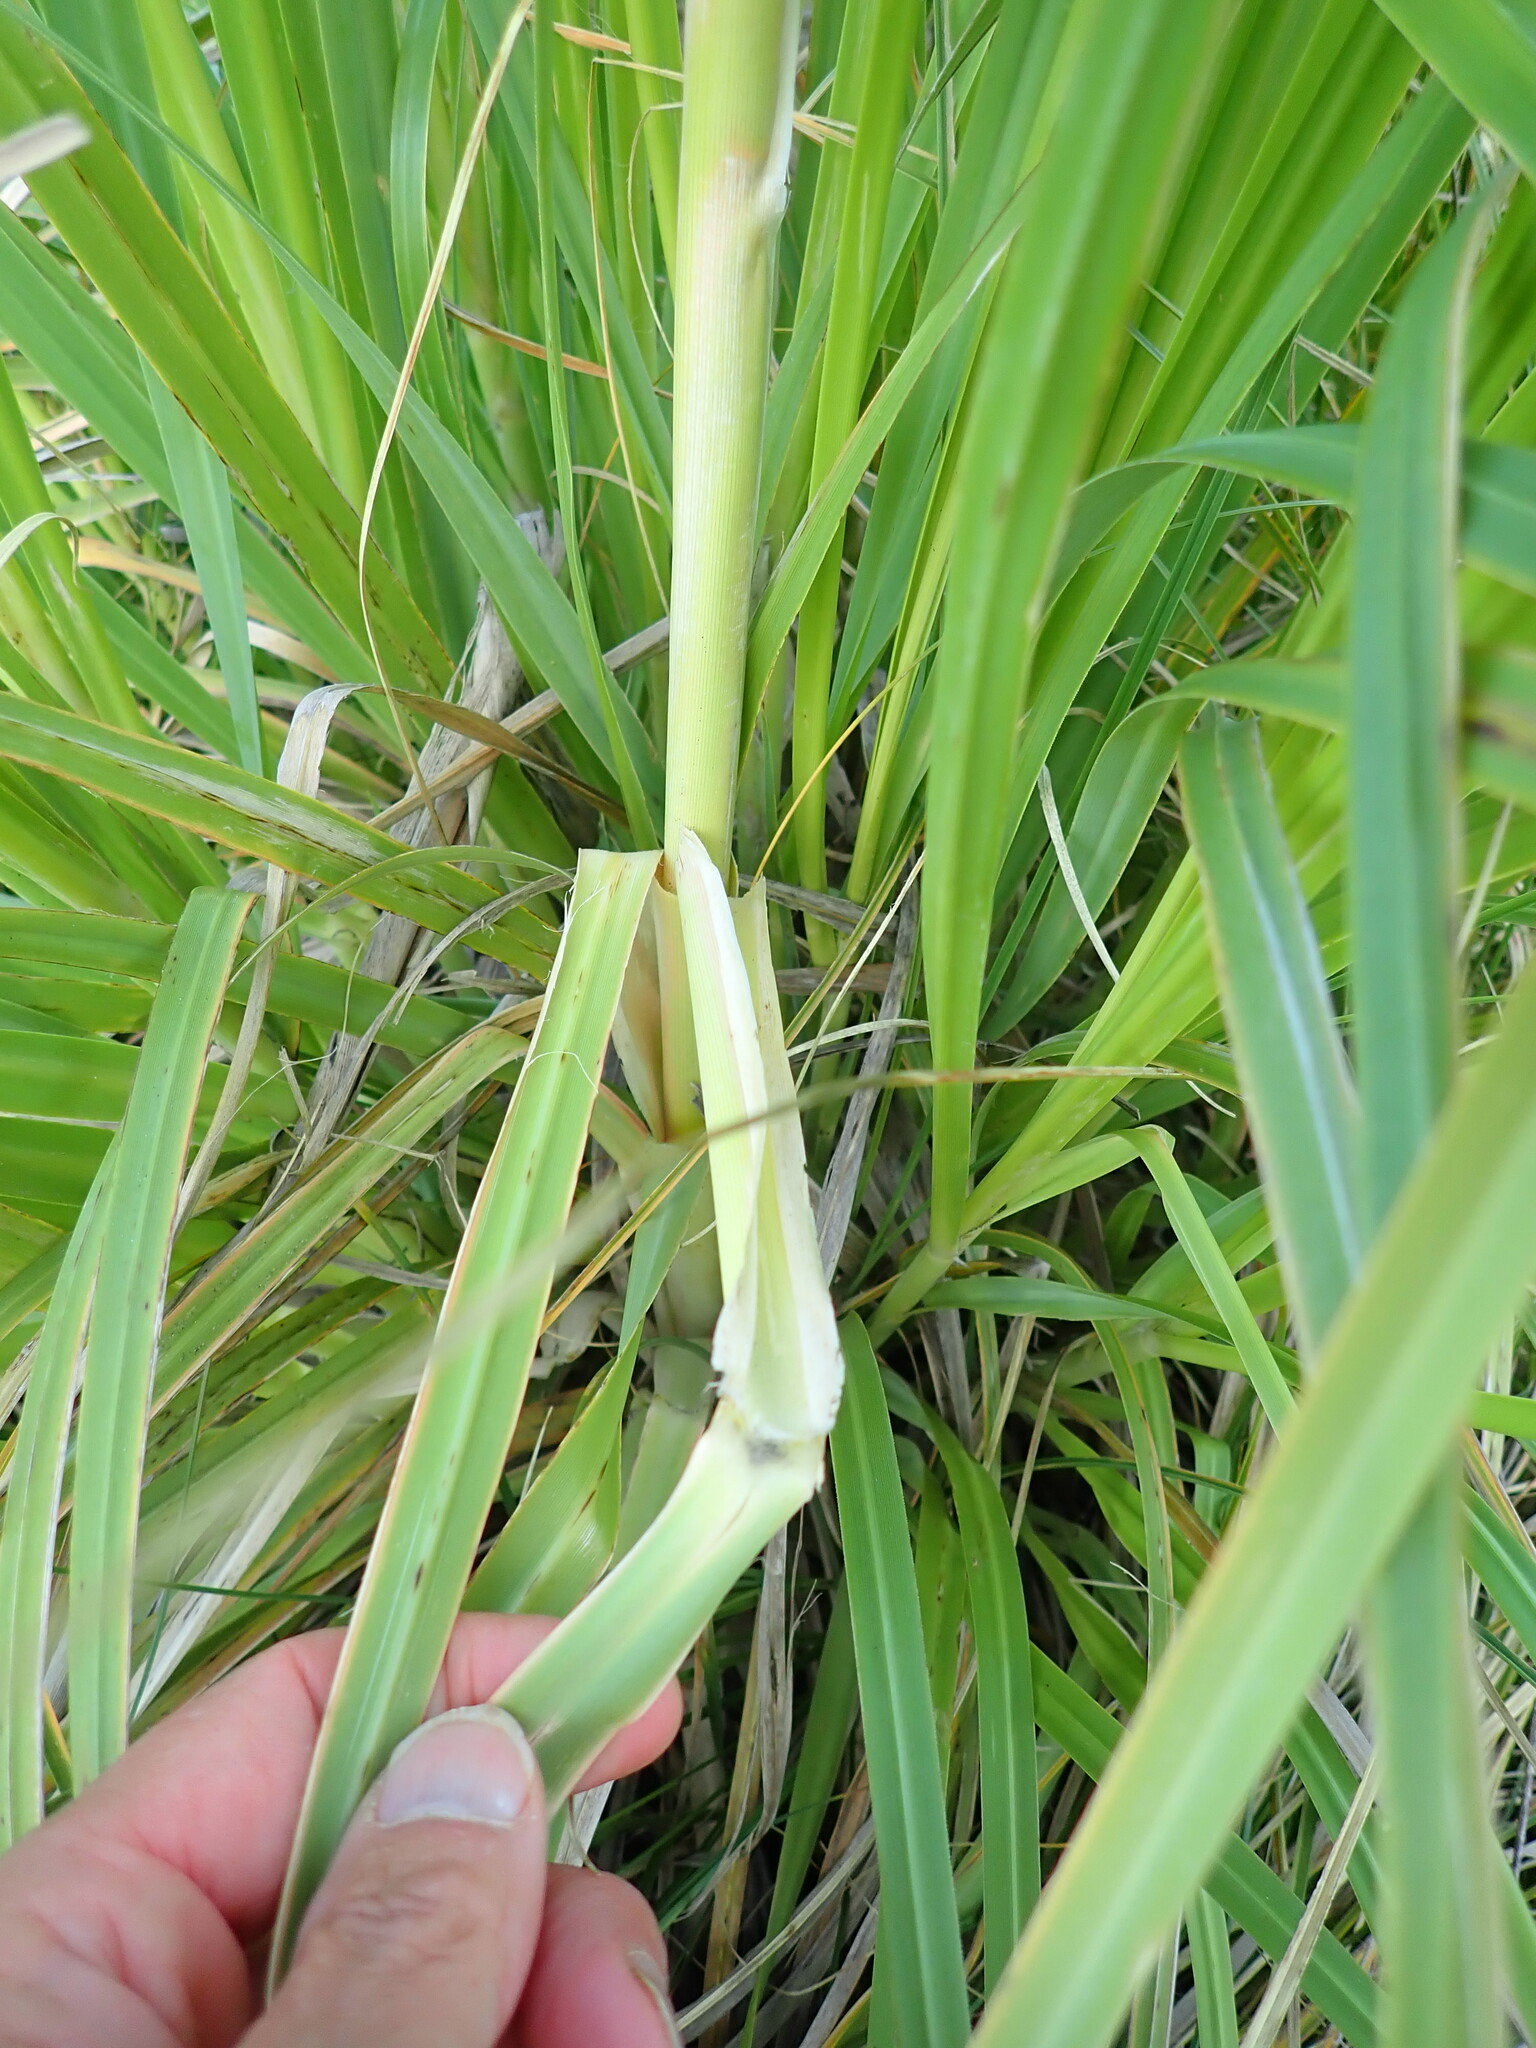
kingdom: Plantae
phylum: Tracheophyta
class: Liliopsida
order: Poales
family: Poaceae
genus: Cortaderia
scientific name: Cortaderia selloana
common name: Uruguayan pampas grass
